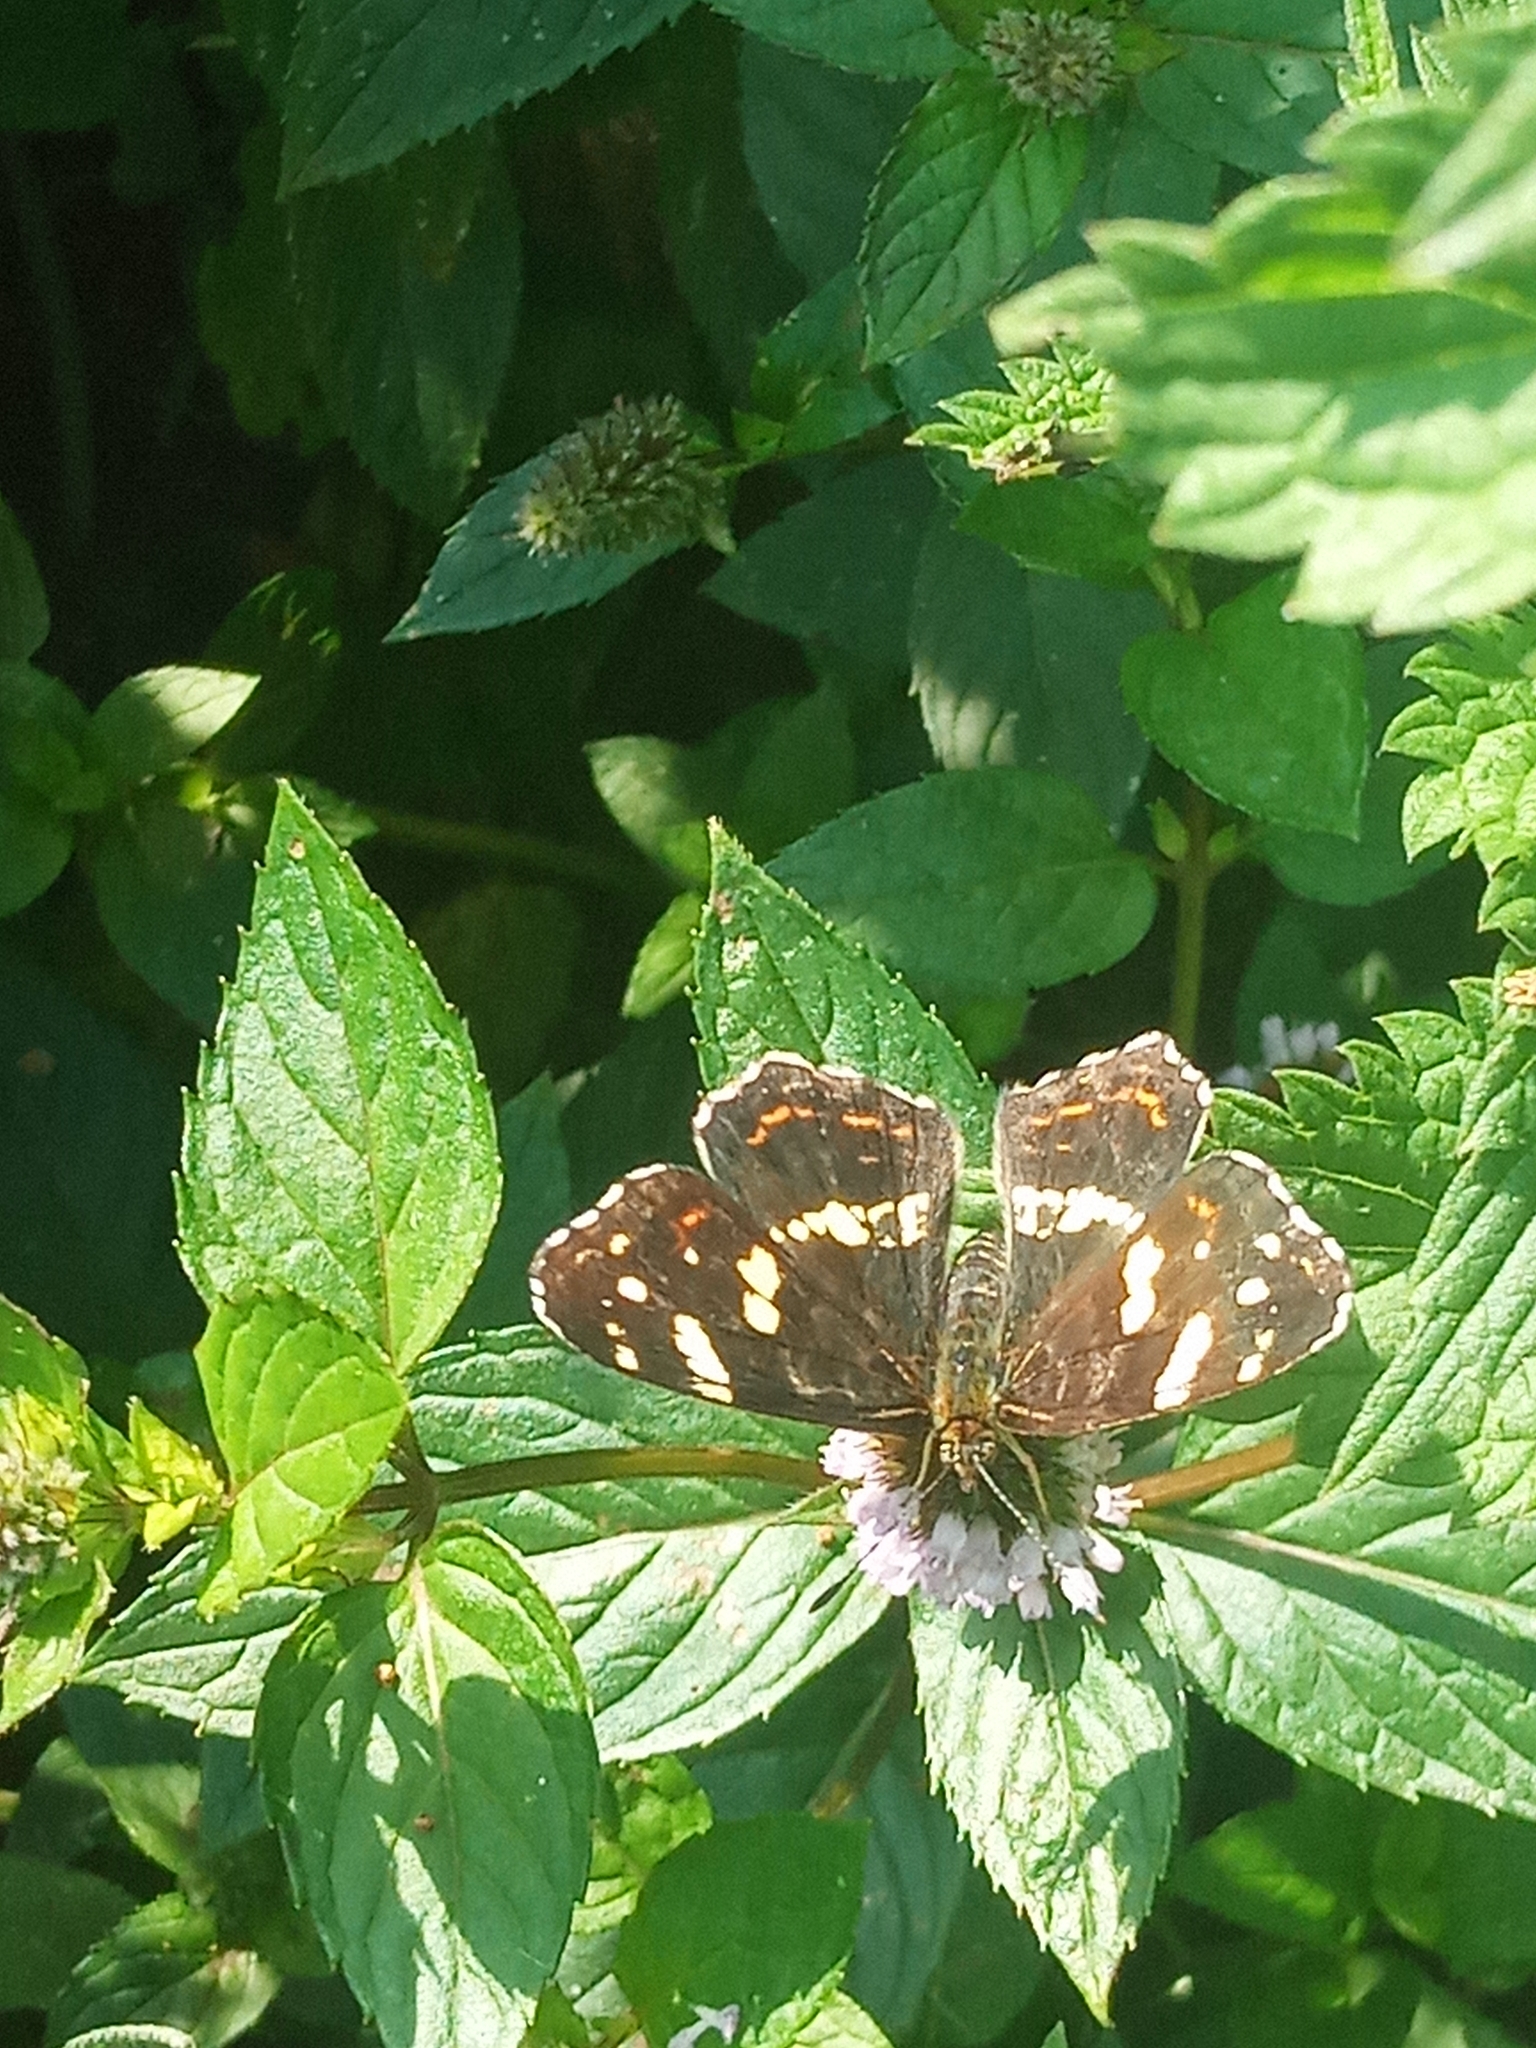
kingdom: Animalia
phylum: Arthropoda
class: Insecta
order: Lepidoptera
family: Nymphalidae
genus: Araschnia
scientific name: Araschnia levana
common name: Map butterfly
